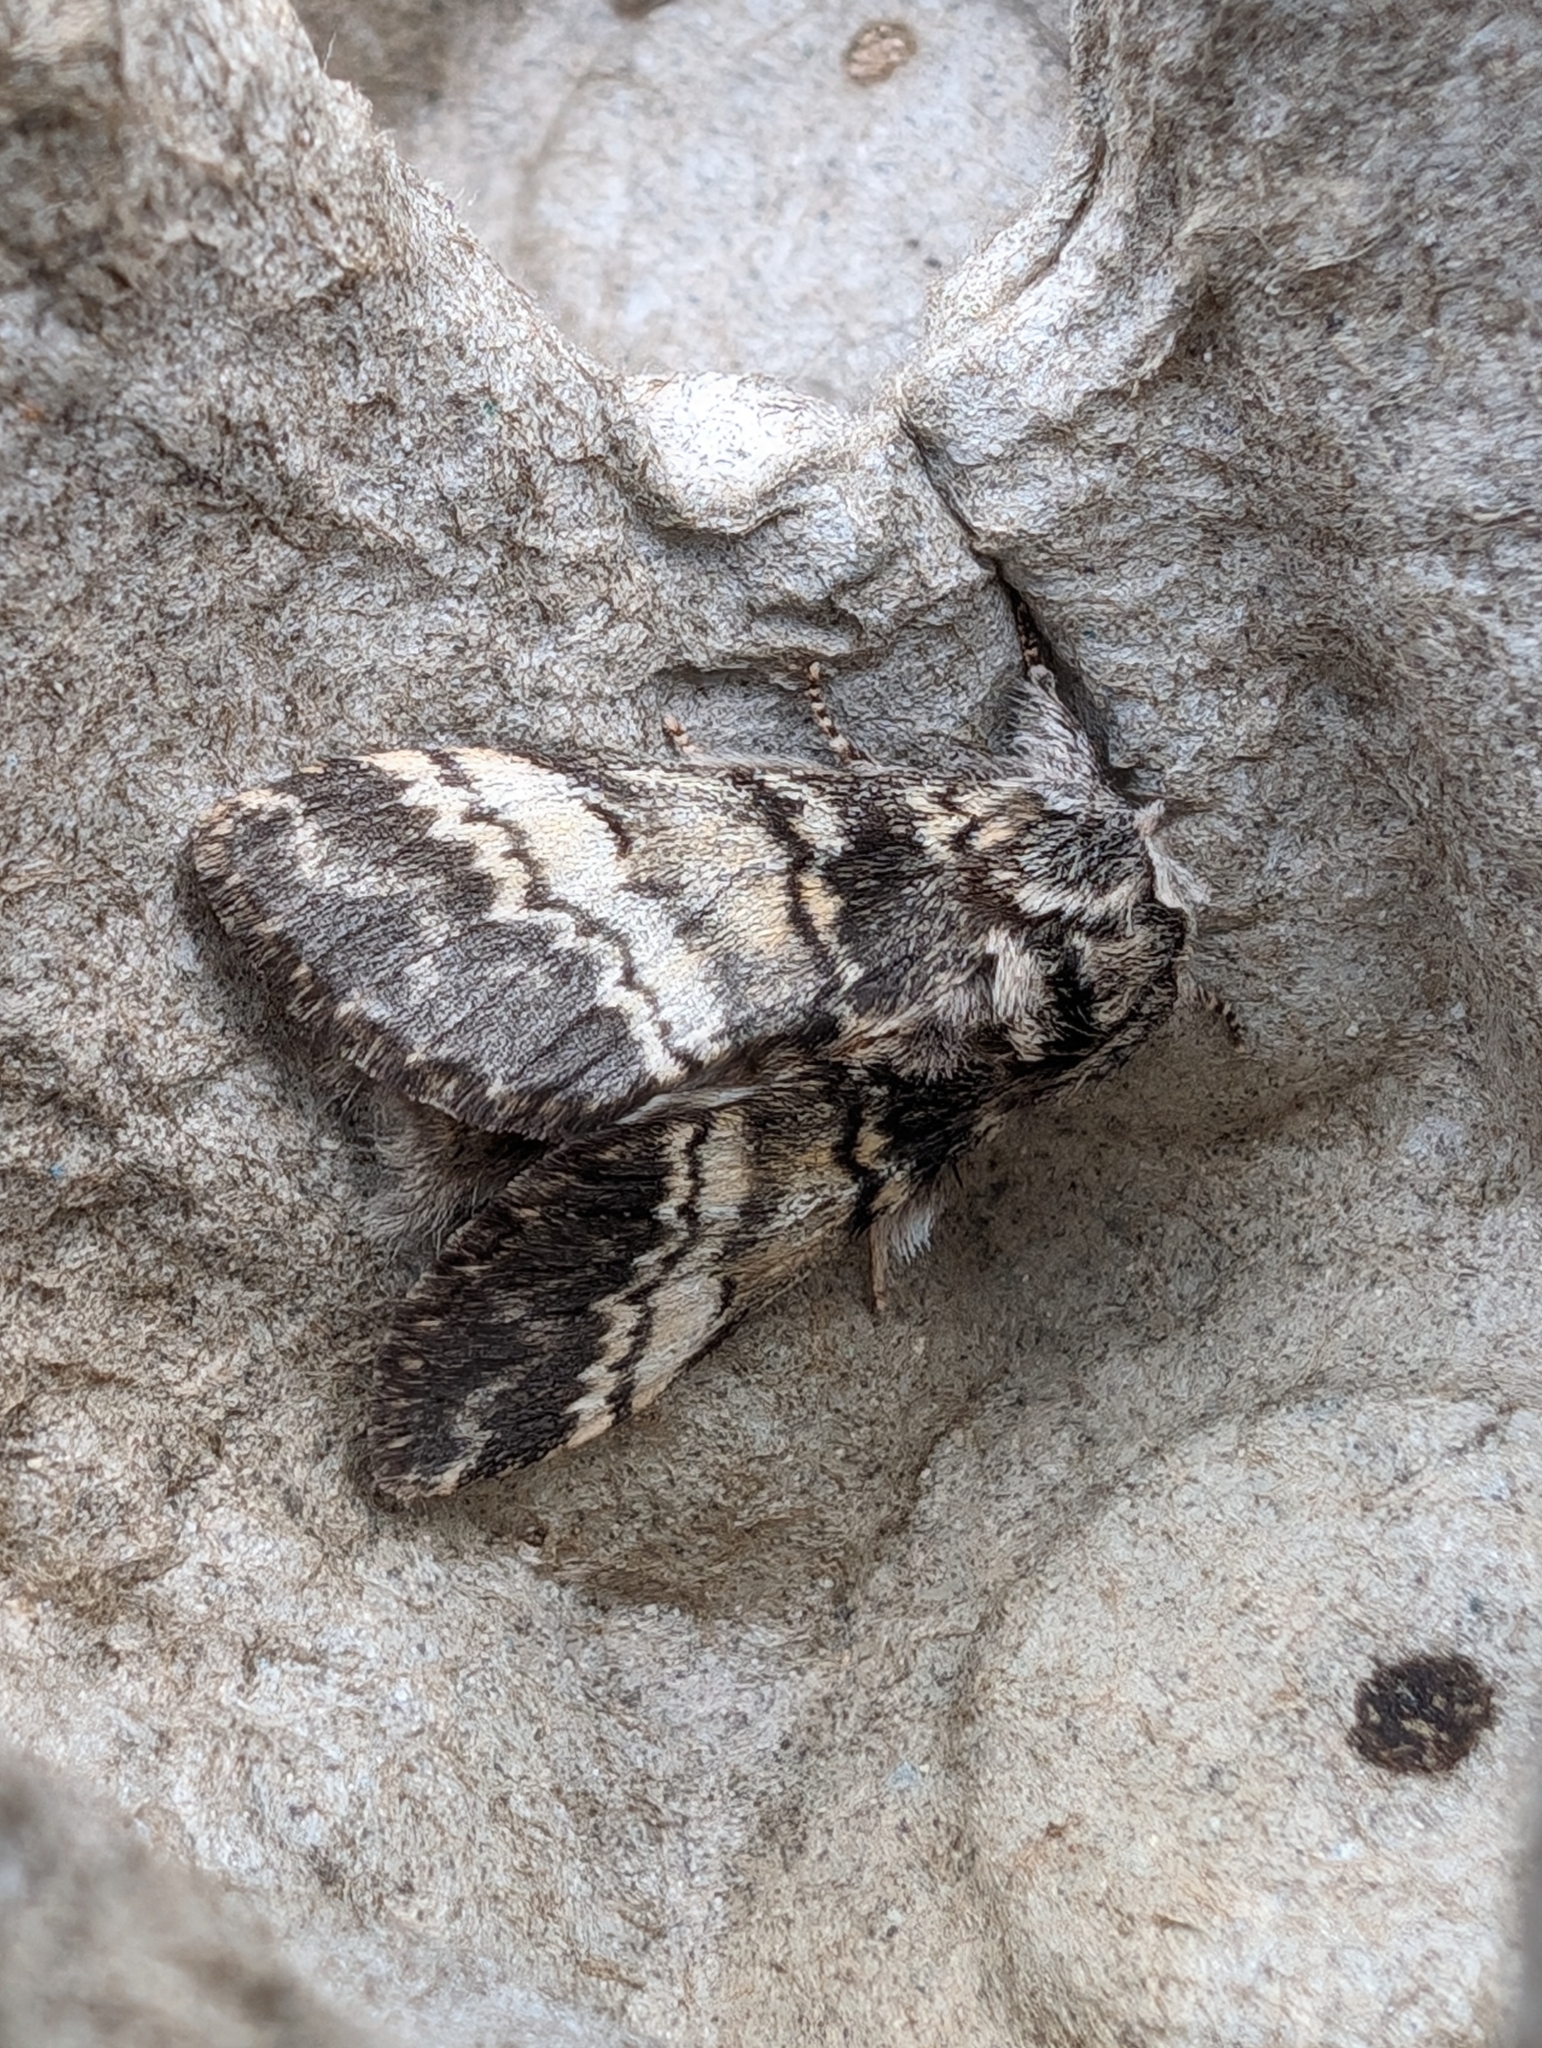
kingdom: Animalia
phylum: Arthropoda
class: Insecta
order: Lepidoptera
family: Notodontidae
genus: Drymonia
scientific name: Drymonia ruficornis
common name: Lunar marbled brown
